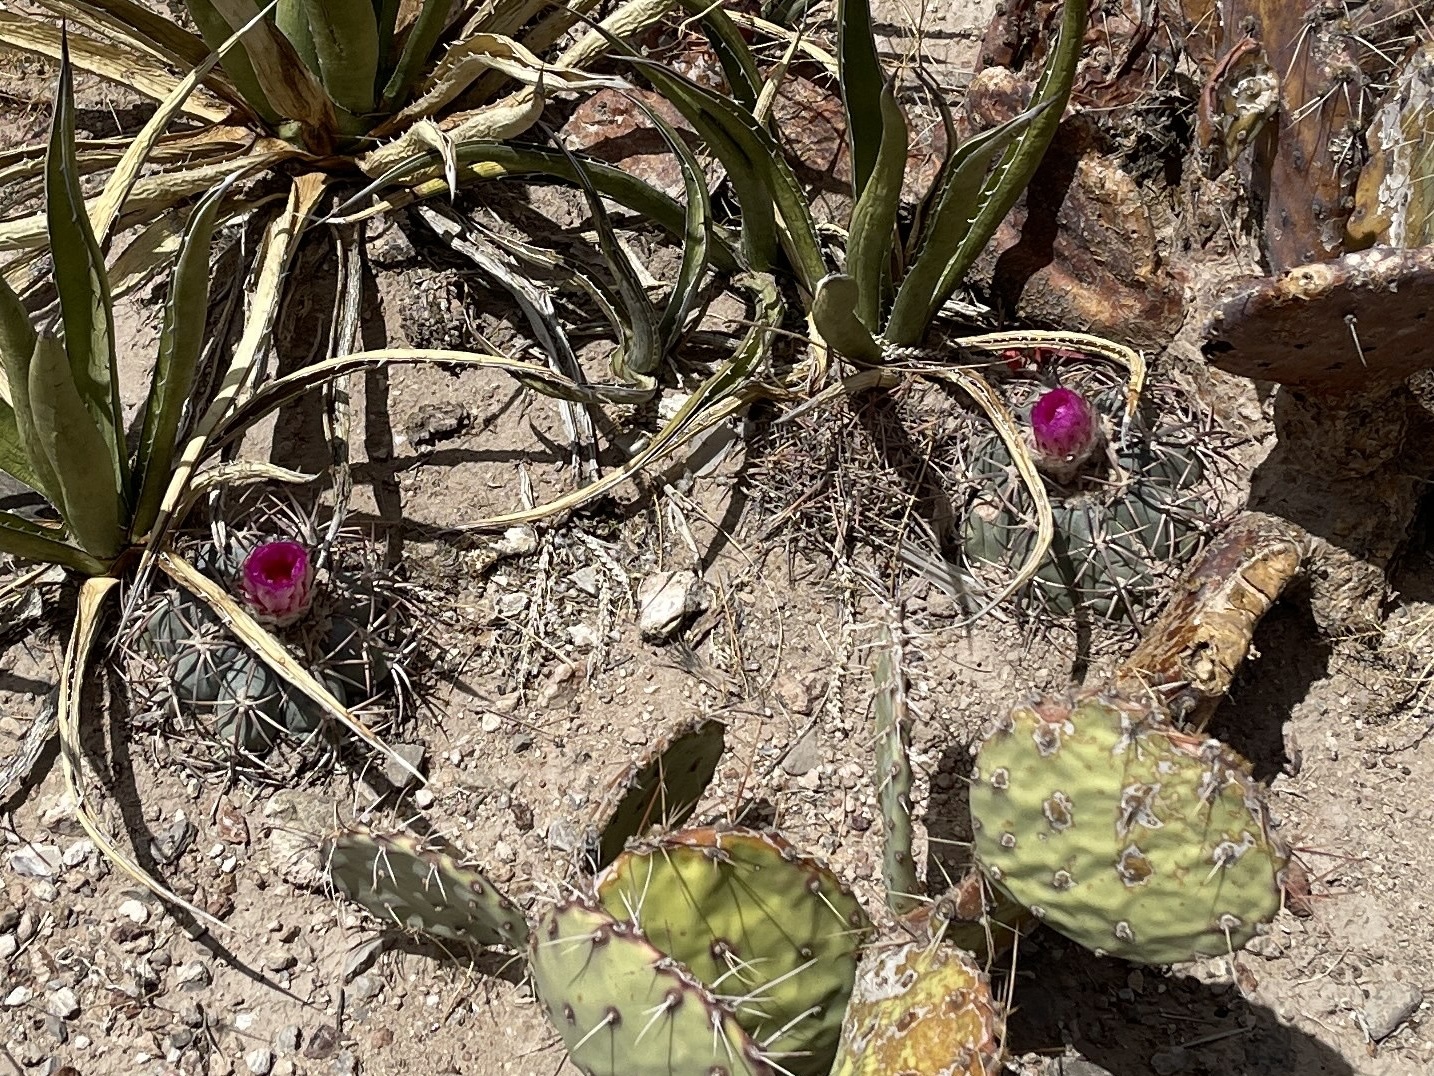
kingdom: Plantae
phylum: Tracheophyta
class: Magnoliopsida
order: Caryophyllales
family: Cactaceae
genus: Echinocactus
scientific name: Echinocactus horizonthalonius
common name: Devilshead
